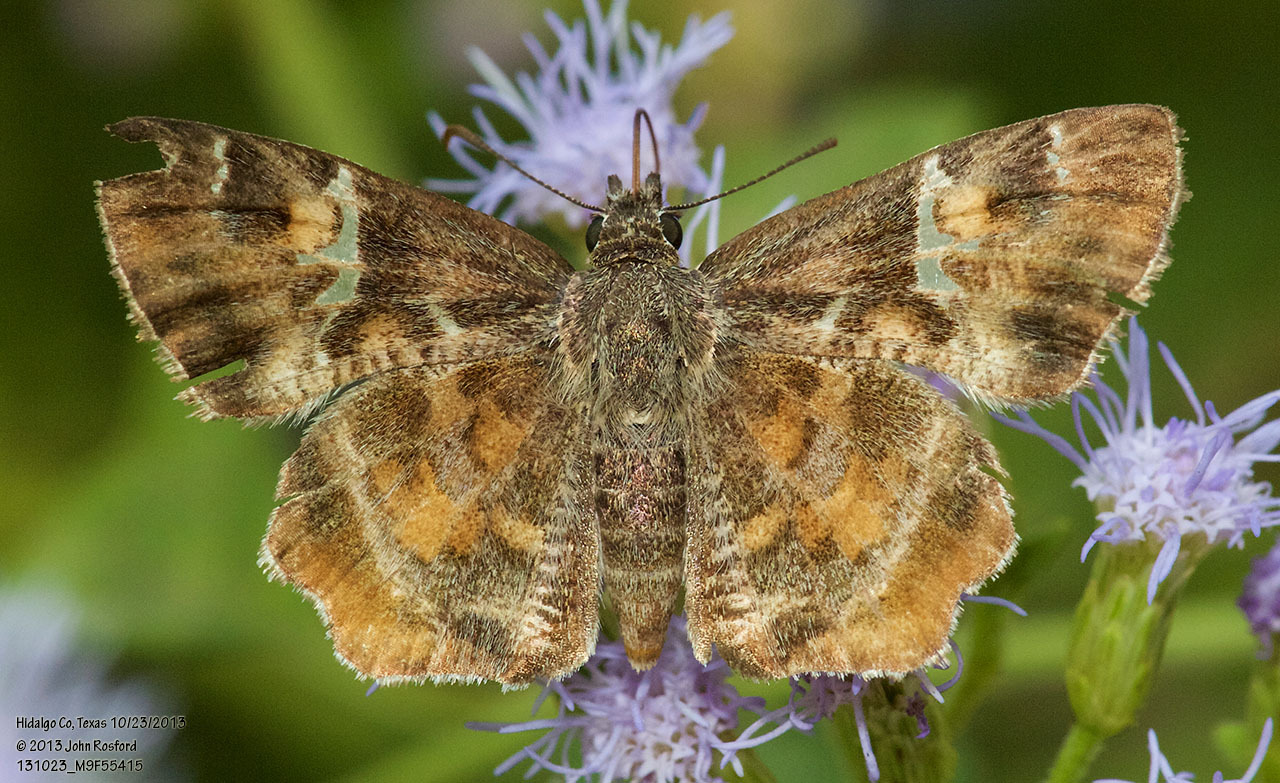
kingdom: Animalia
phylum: Arthropoda
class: Insecta
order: Lepidoptera
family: Hesperiidae
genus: Systasea
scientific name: Systasea pulverulenta
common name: Texas powdered skipper
